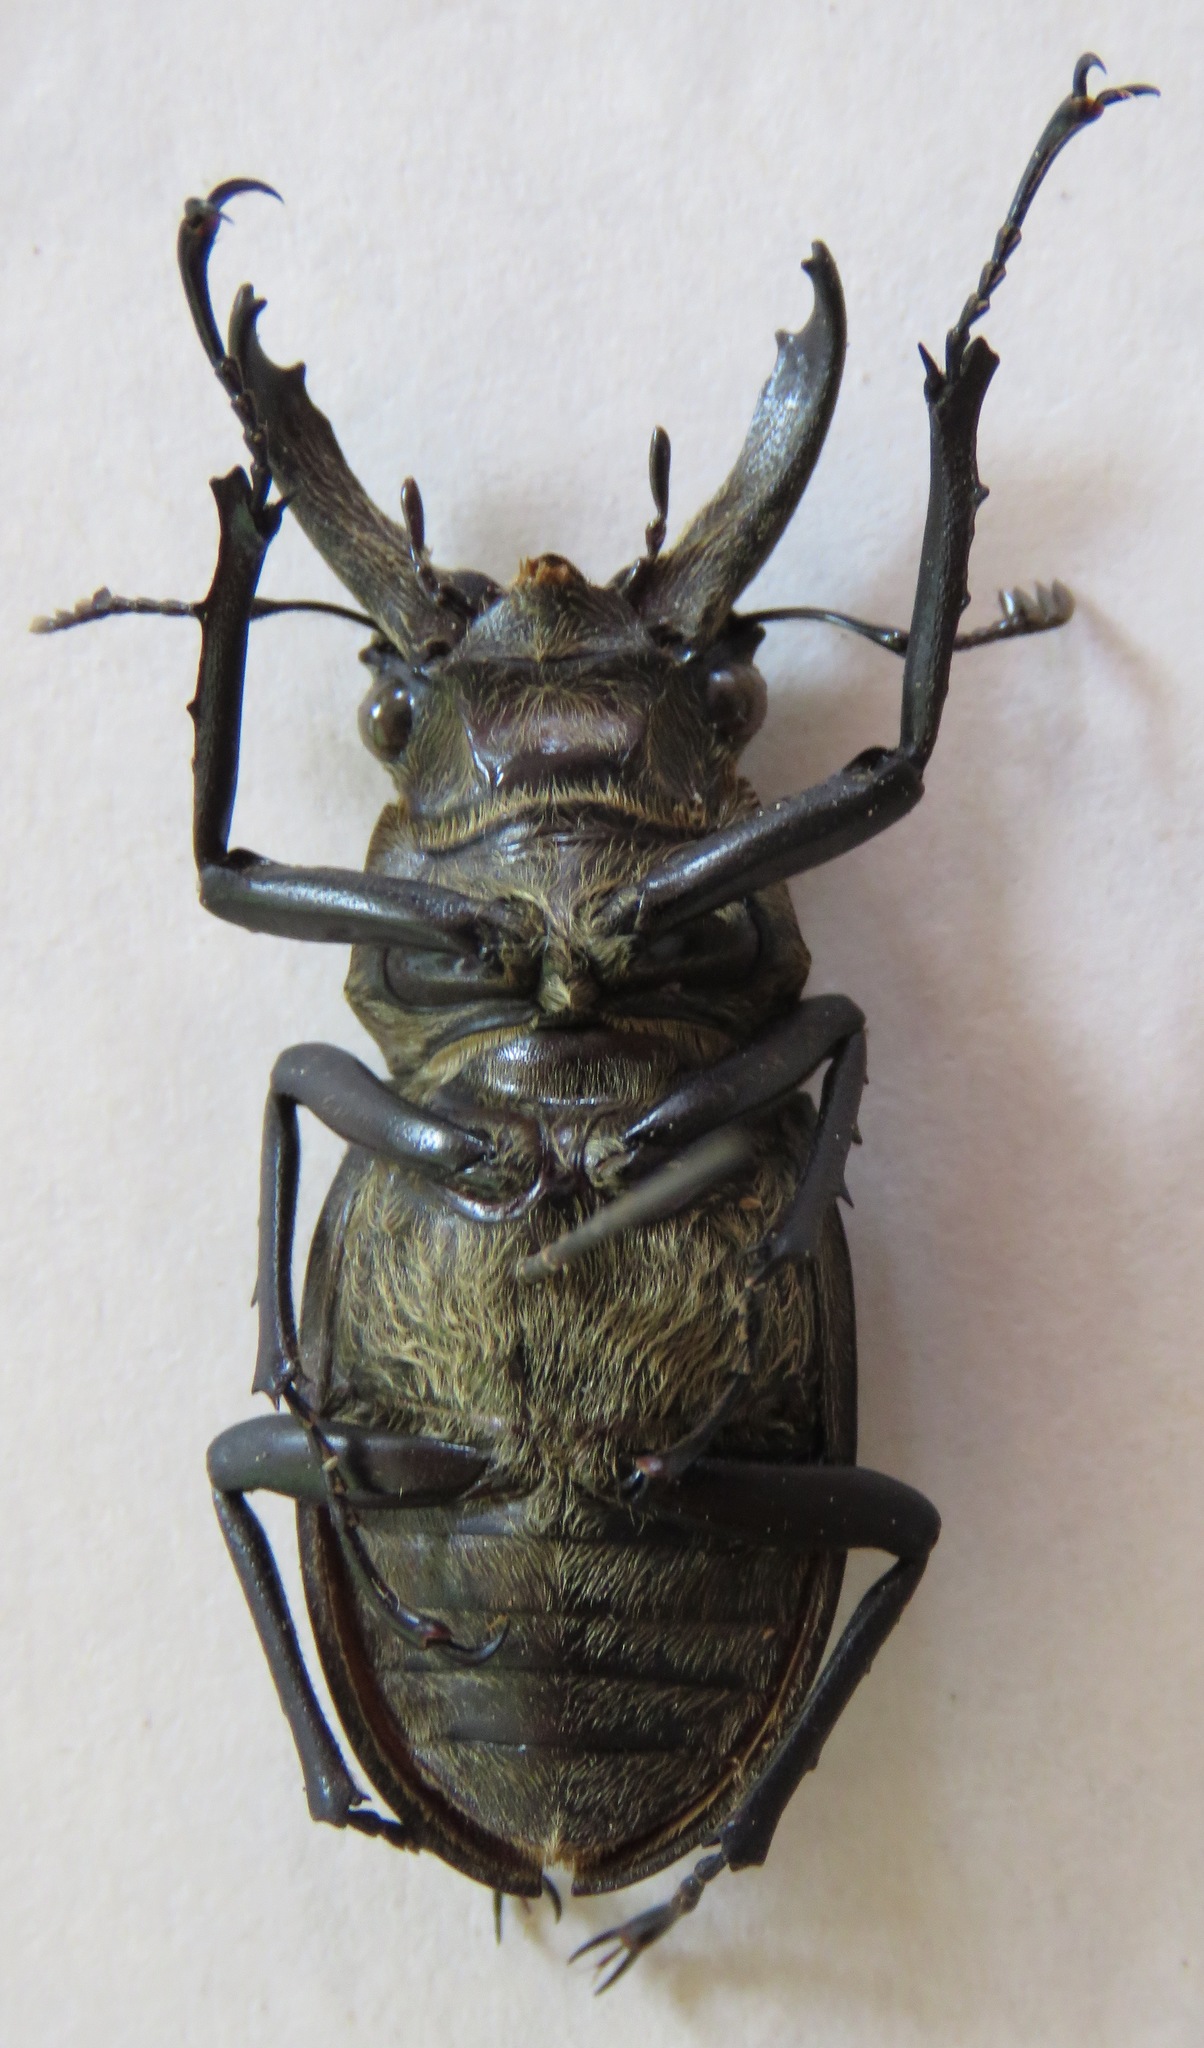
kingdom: Animalia
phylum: Arthropoda
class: Insecta
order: Coleoptera
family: Lucanidae
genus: Lucanus
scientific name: Lucanus sericeus
